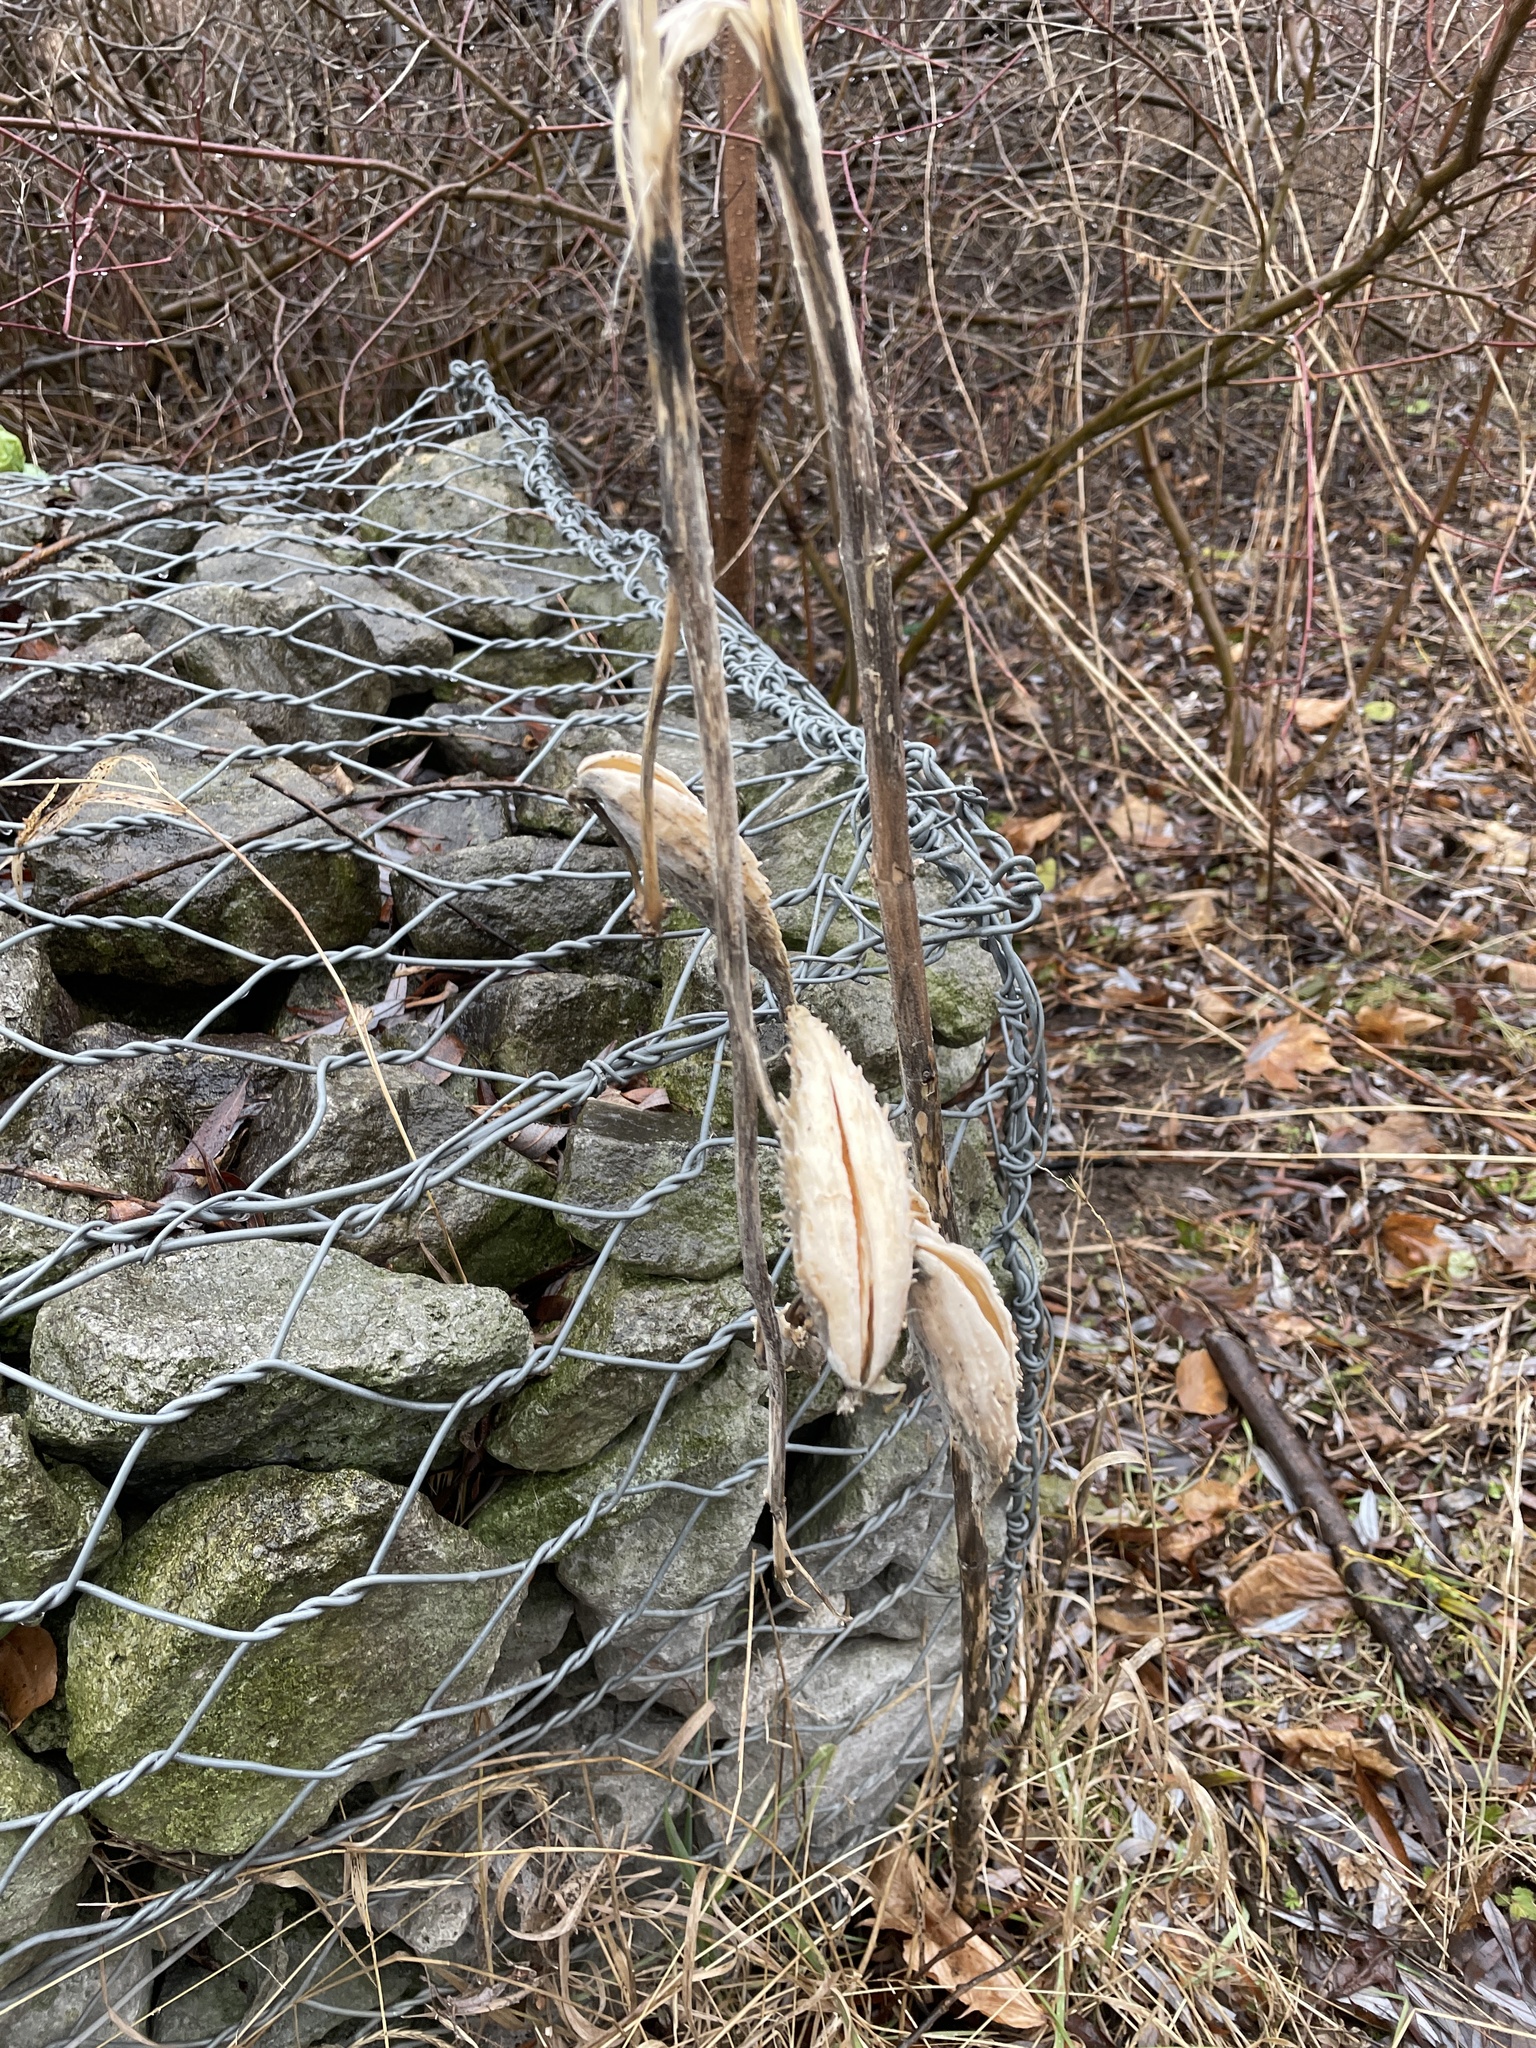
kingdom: Plantae
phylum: Tracheophyta
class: Magnoliopsida
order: Gentianales
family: Apocynaceae
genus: Asclepias
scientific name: Asclepias syriaca
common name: Common milkweed
